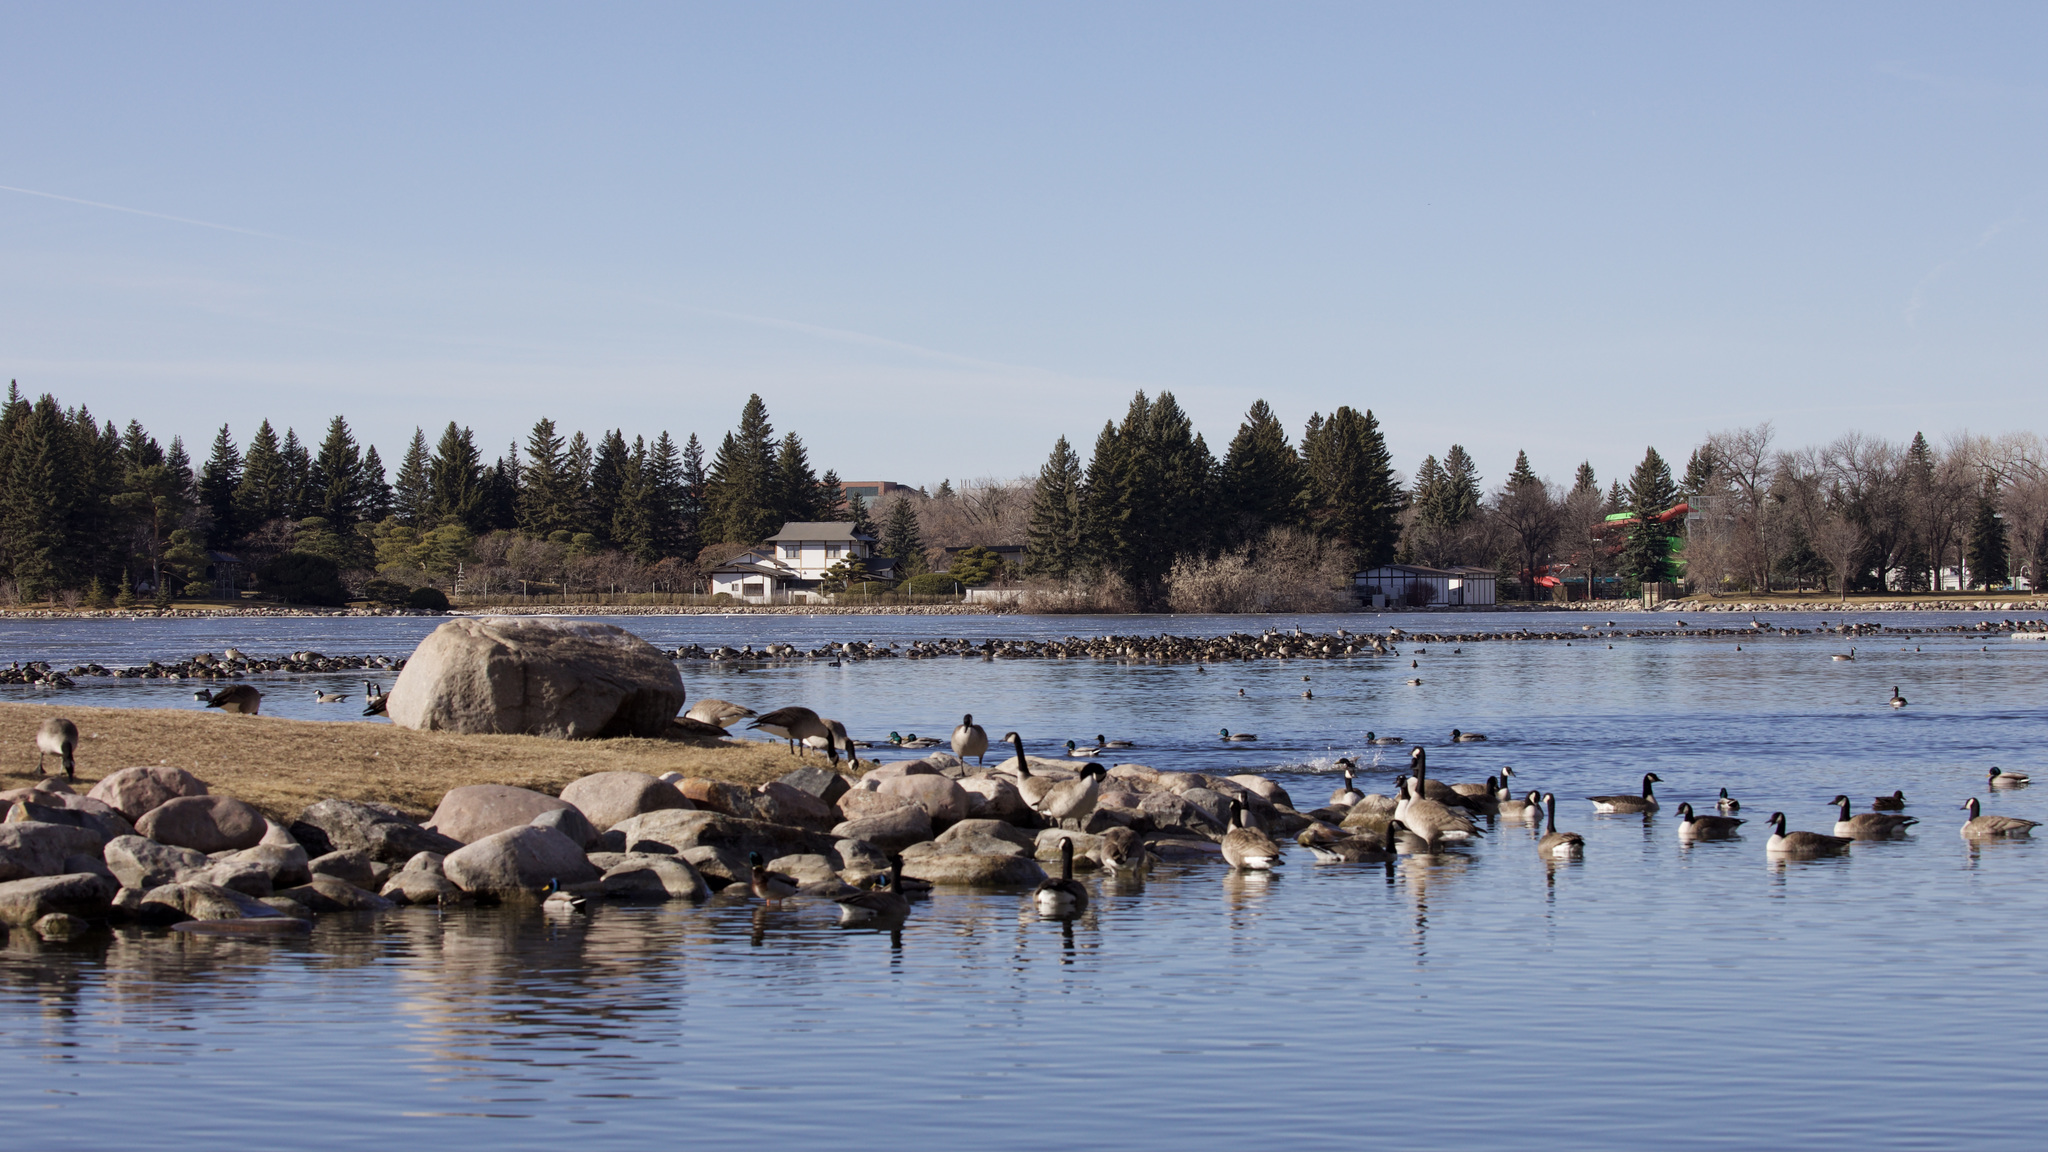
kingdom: Animalia
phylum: Chordata
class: Aves
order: Anseriformes
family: Anatidae
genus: Branta
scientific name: Branta canadensis
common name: Canada goose
